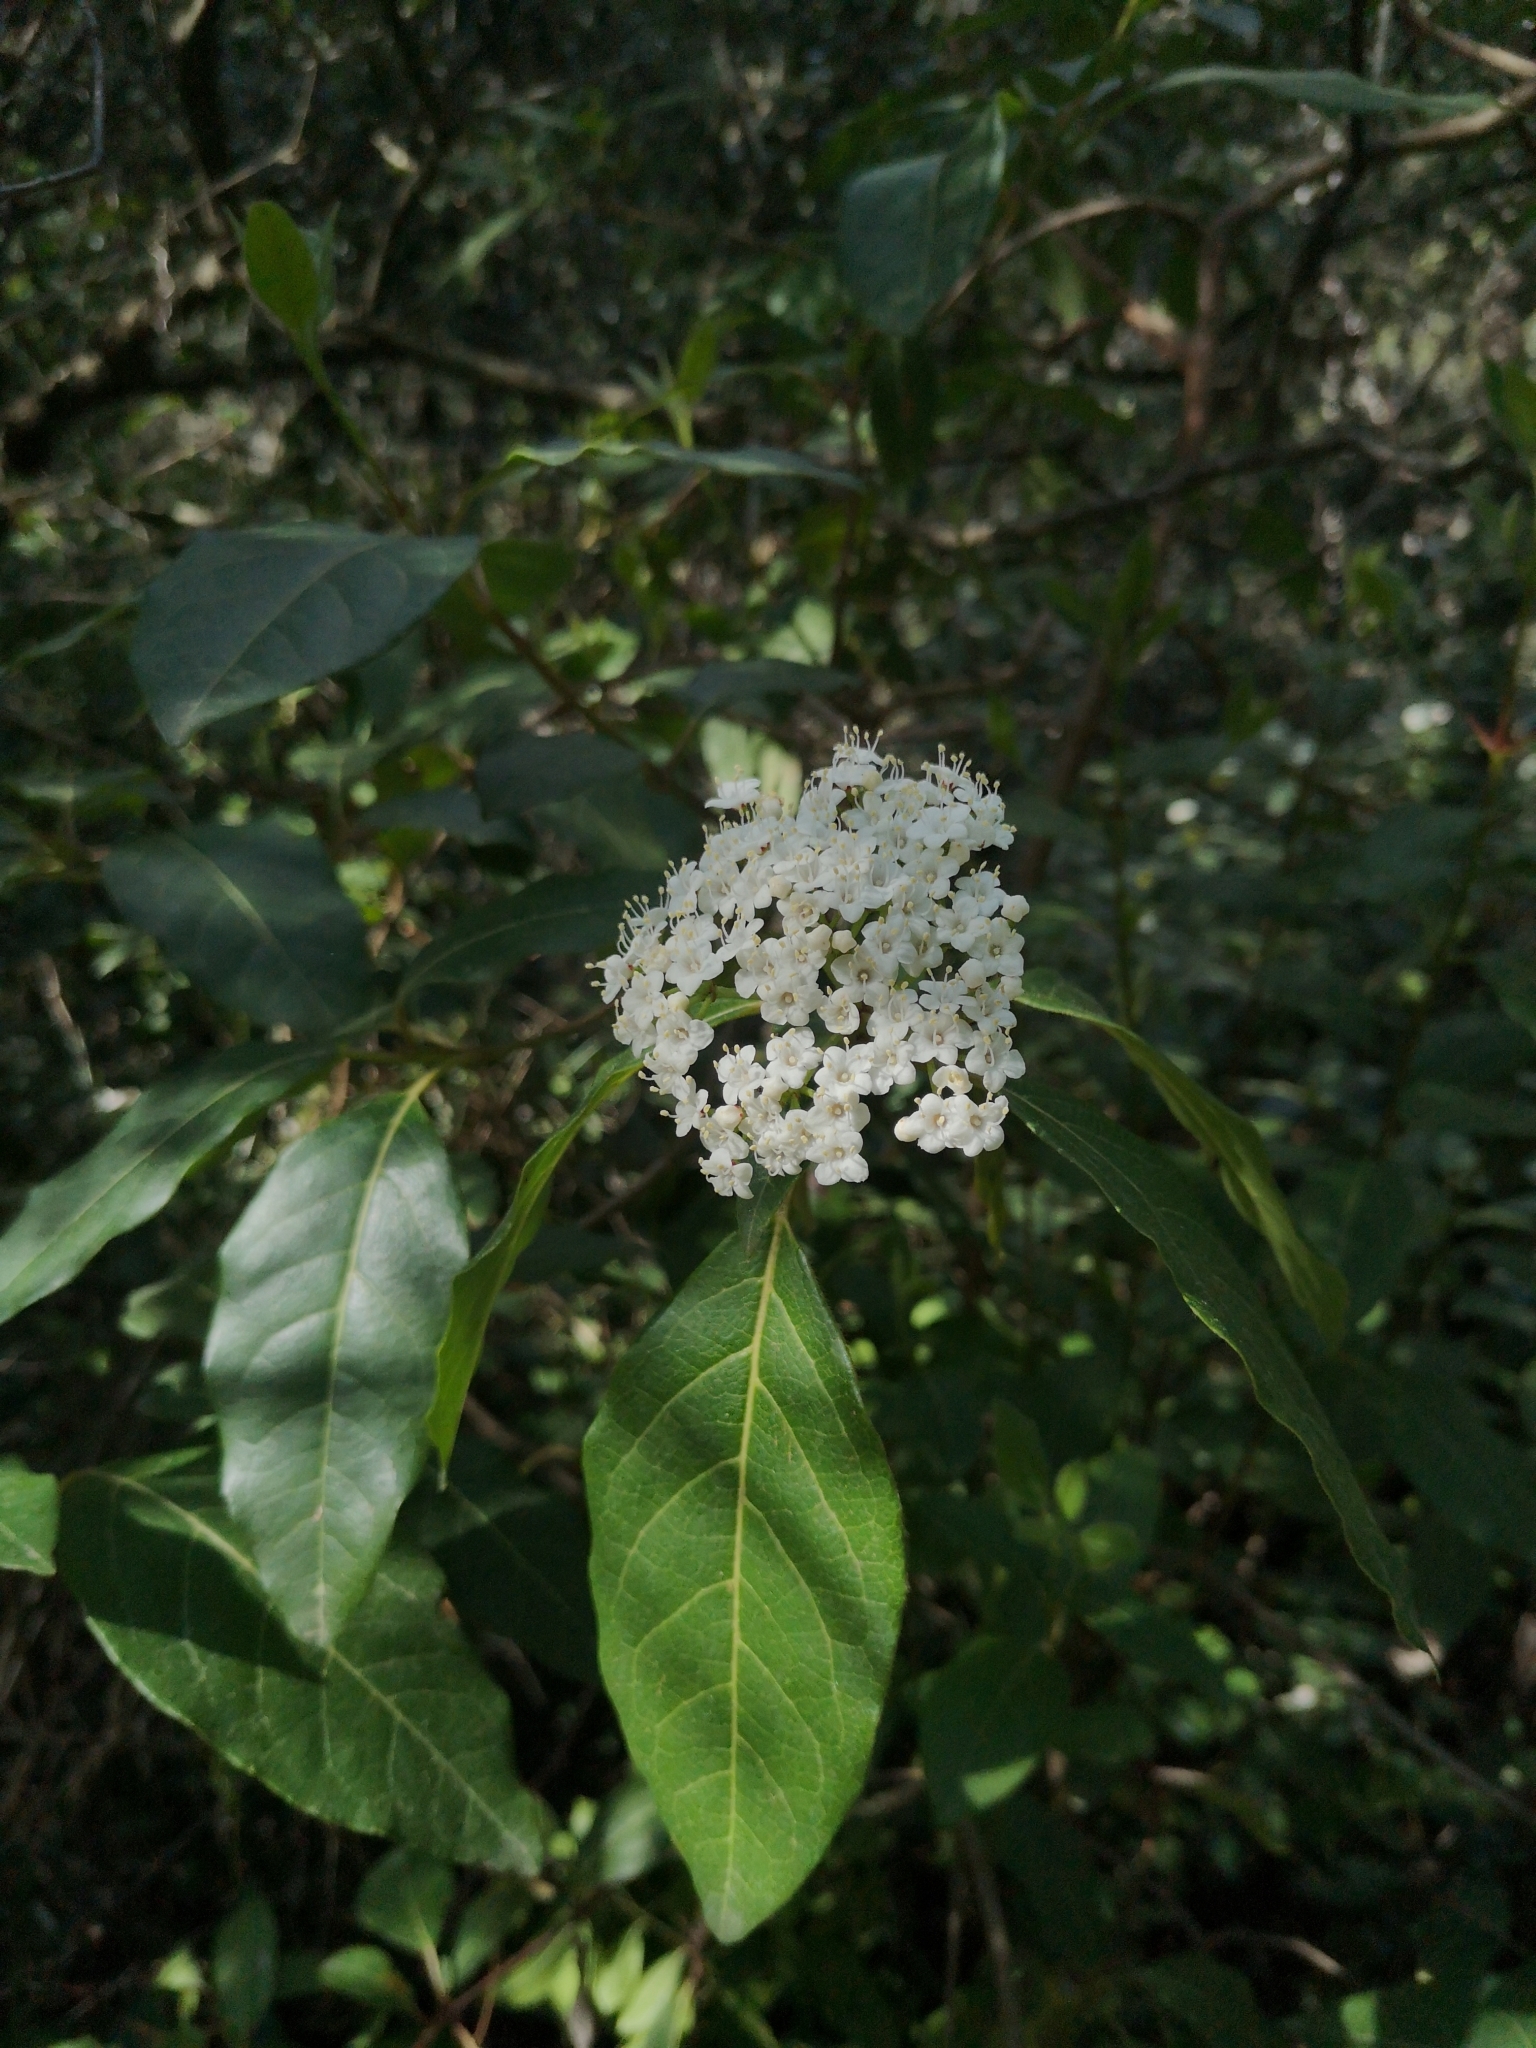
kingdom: Plantae
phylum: Tracheophyta
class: Magnoliopsida
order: Dipsacales
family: Viburnaceae
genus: Viburnum
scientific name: Viburnum tinus
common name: Laurustinus
